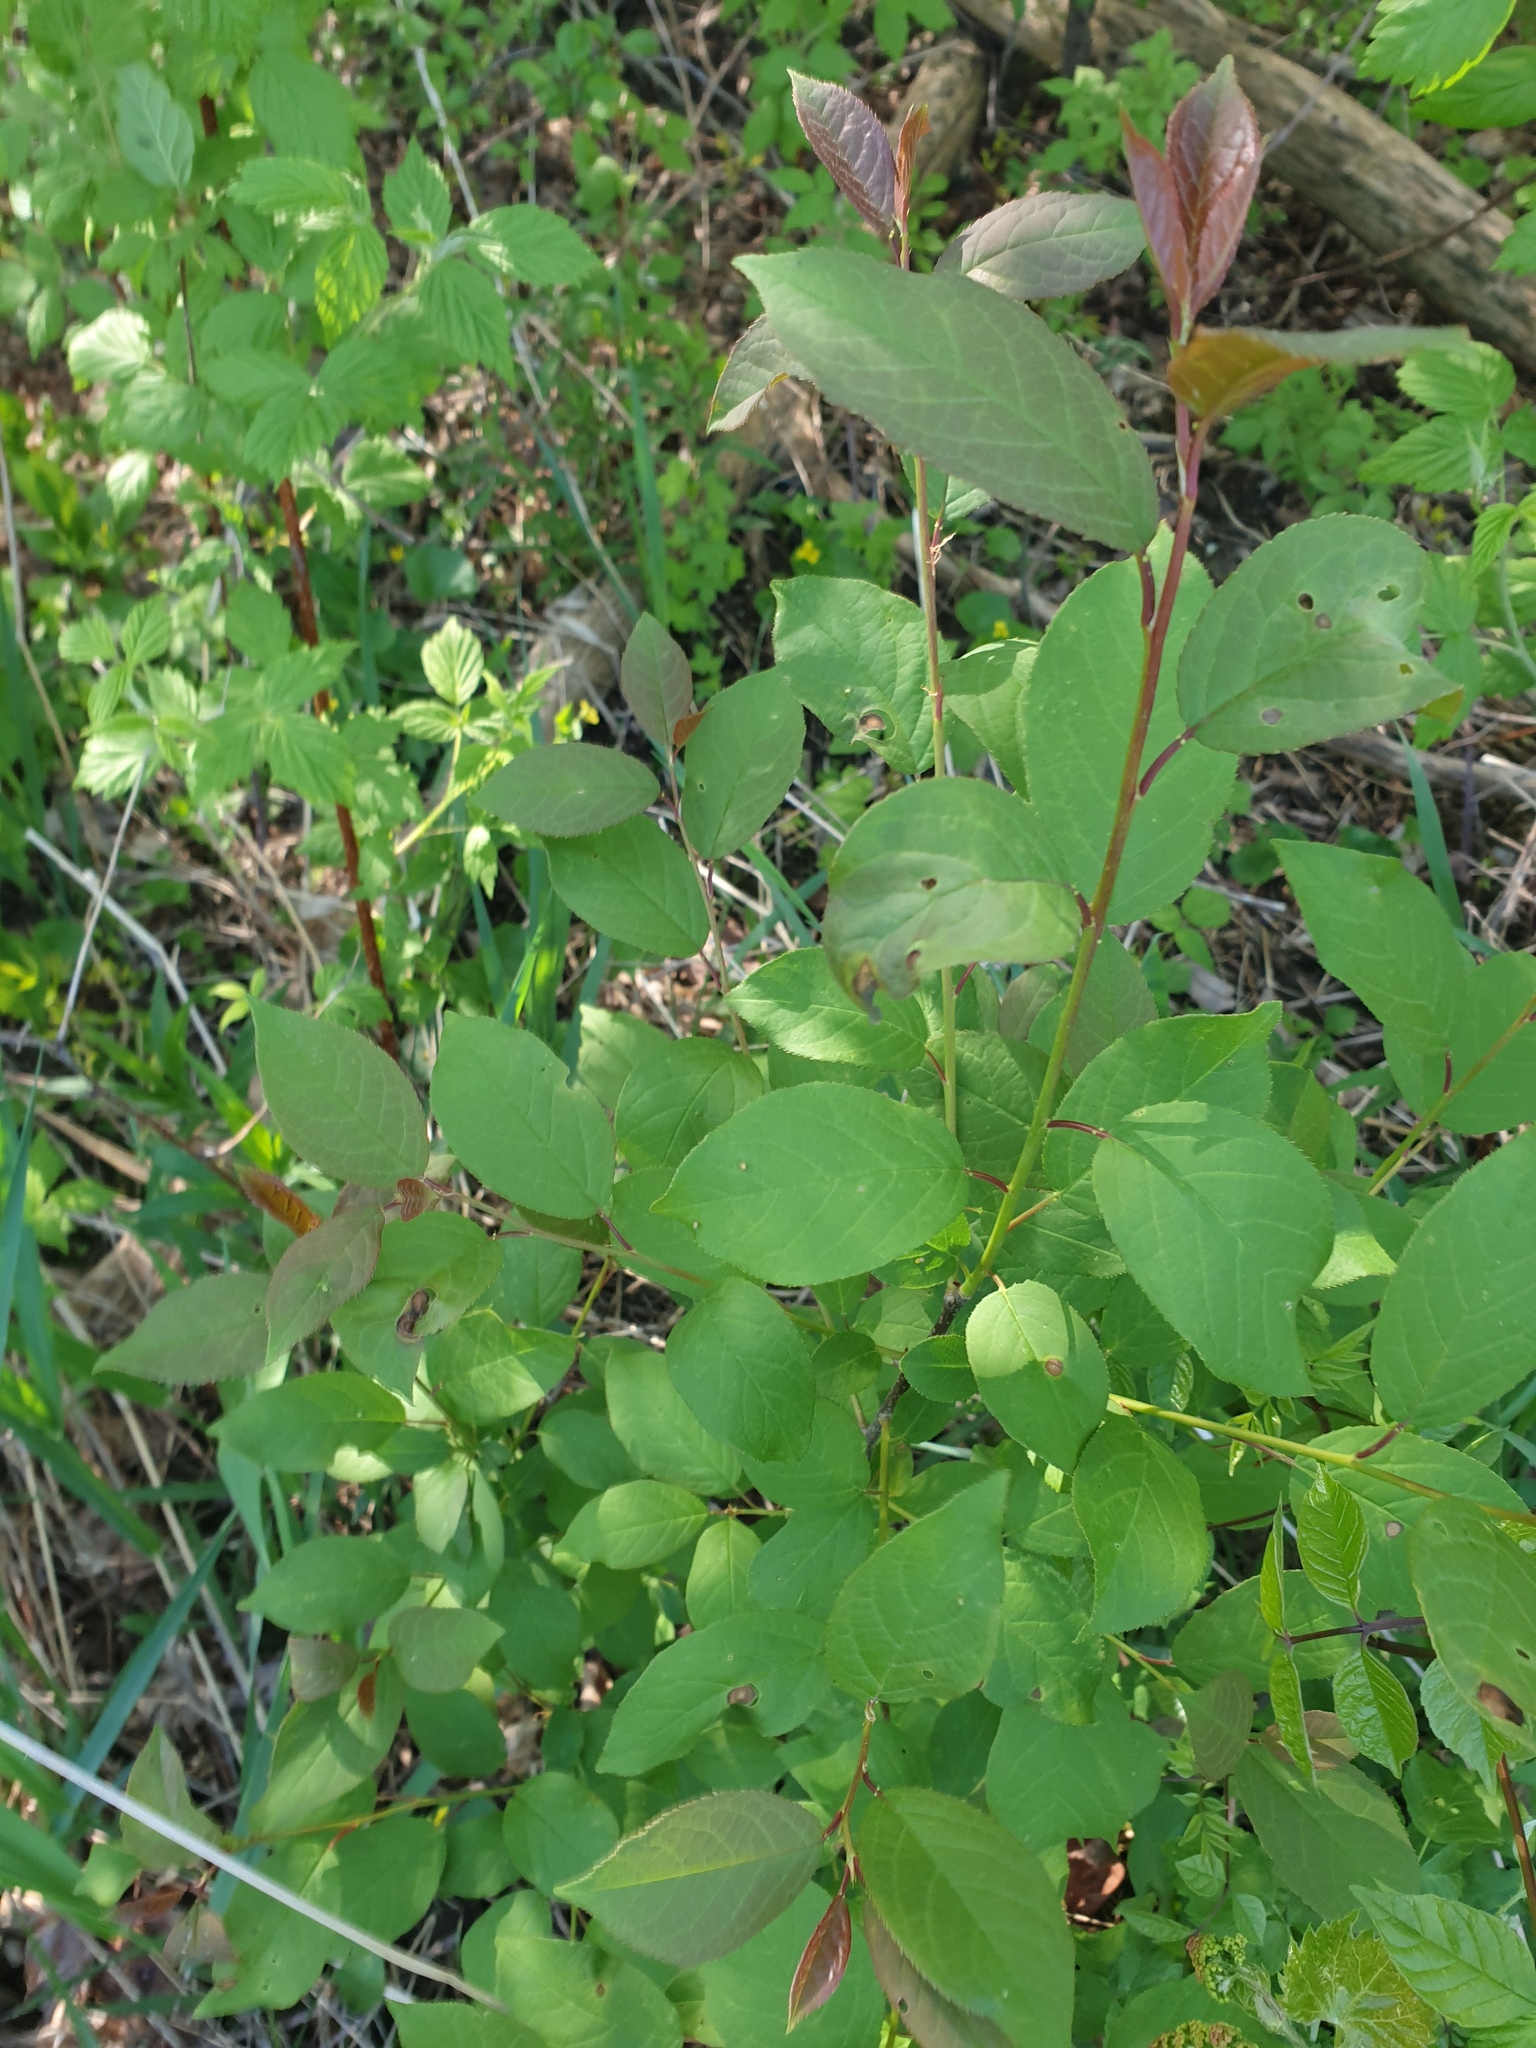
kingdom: Plantae
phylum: Tracheophyta
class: Magnoliopsida
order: Rosales
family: Rosaceae
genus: Prunus
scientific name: Prunus virginiana
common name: Chokecherry
